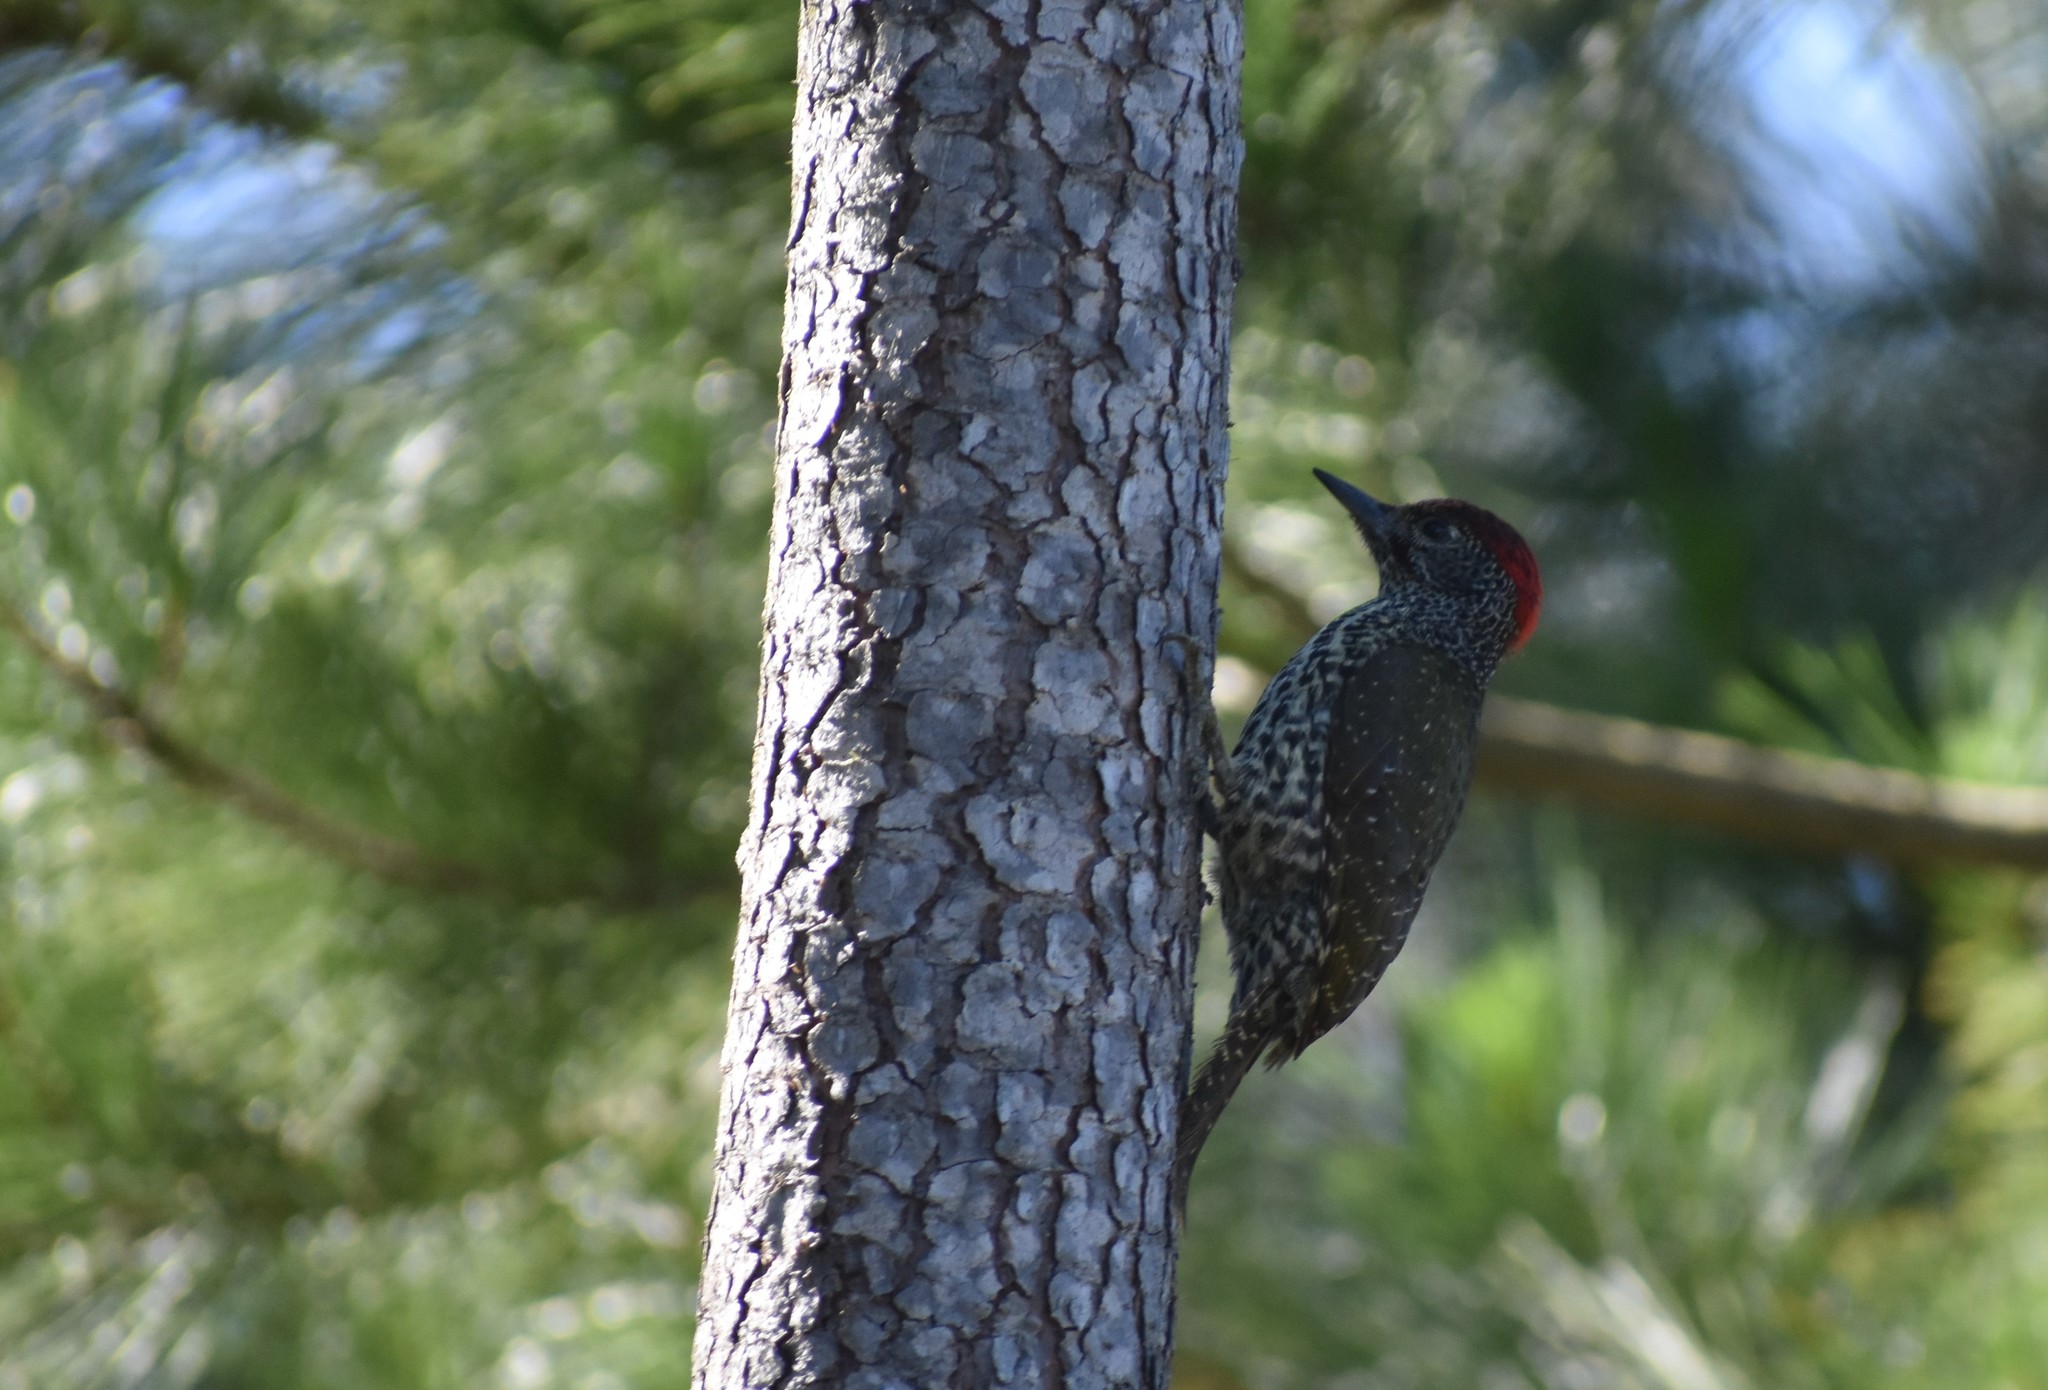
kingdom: Animalia
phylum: Chordata
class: Aves
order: Piciformes
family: Picidae
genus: Campethera
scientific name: Campethera notata
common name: Knysna woodpecker
